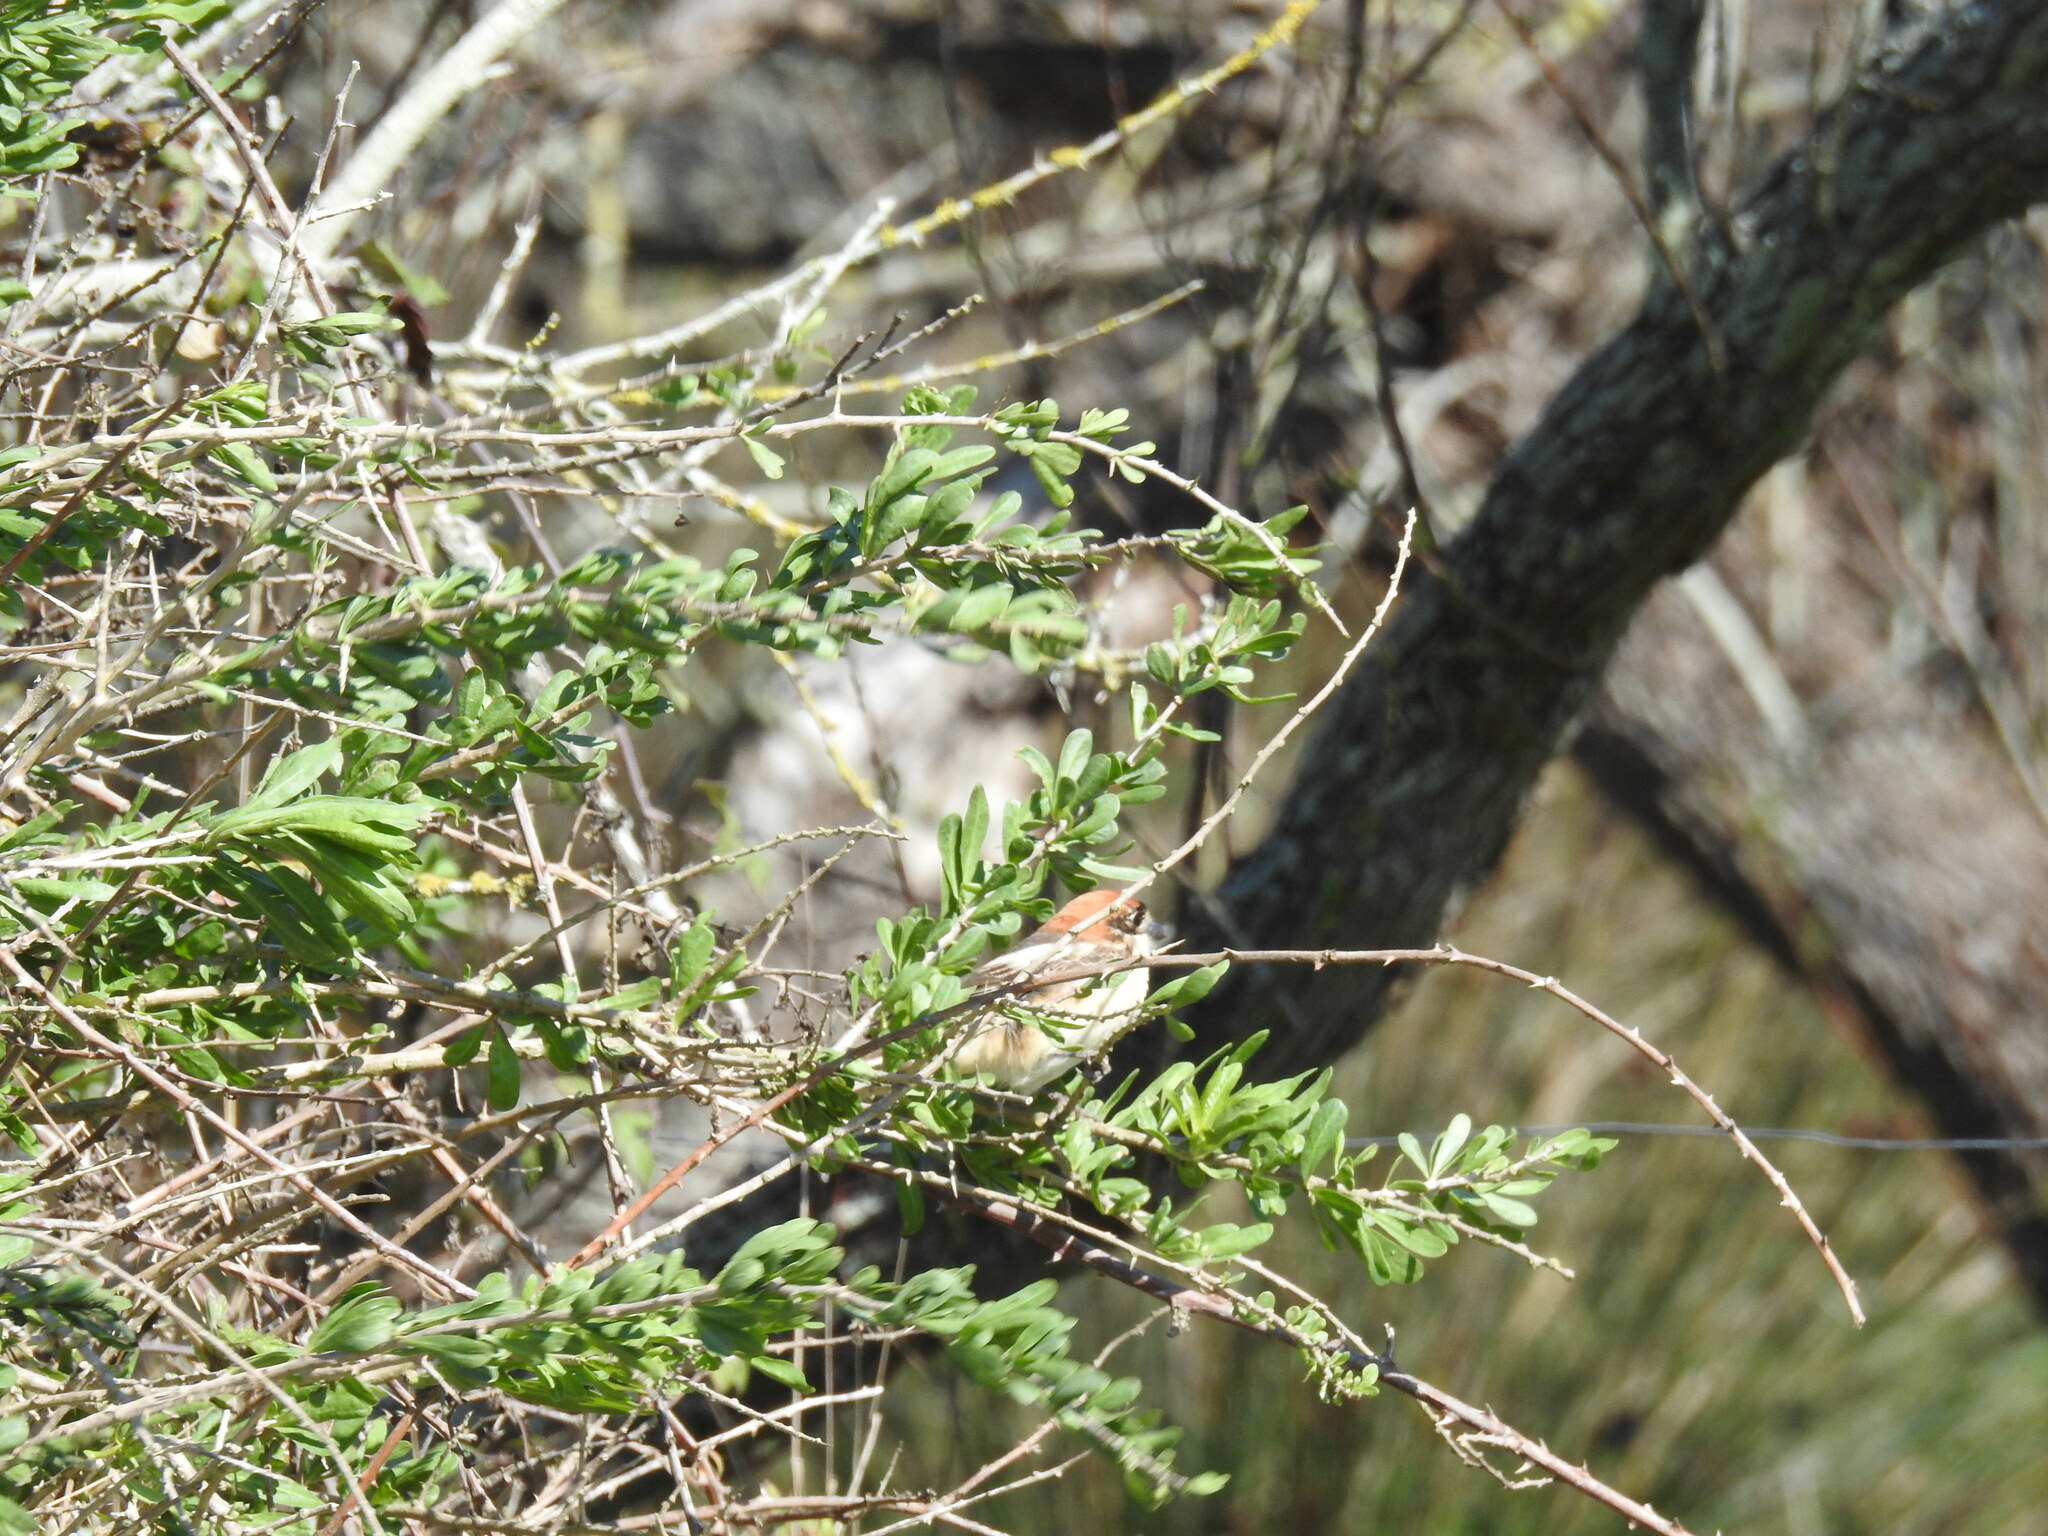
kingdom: Animalia
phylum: Chordata
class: Aves
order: Passeriformes
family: Laniidae
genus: Lanius
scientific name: Lanius senator
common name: Woodchat shrike
